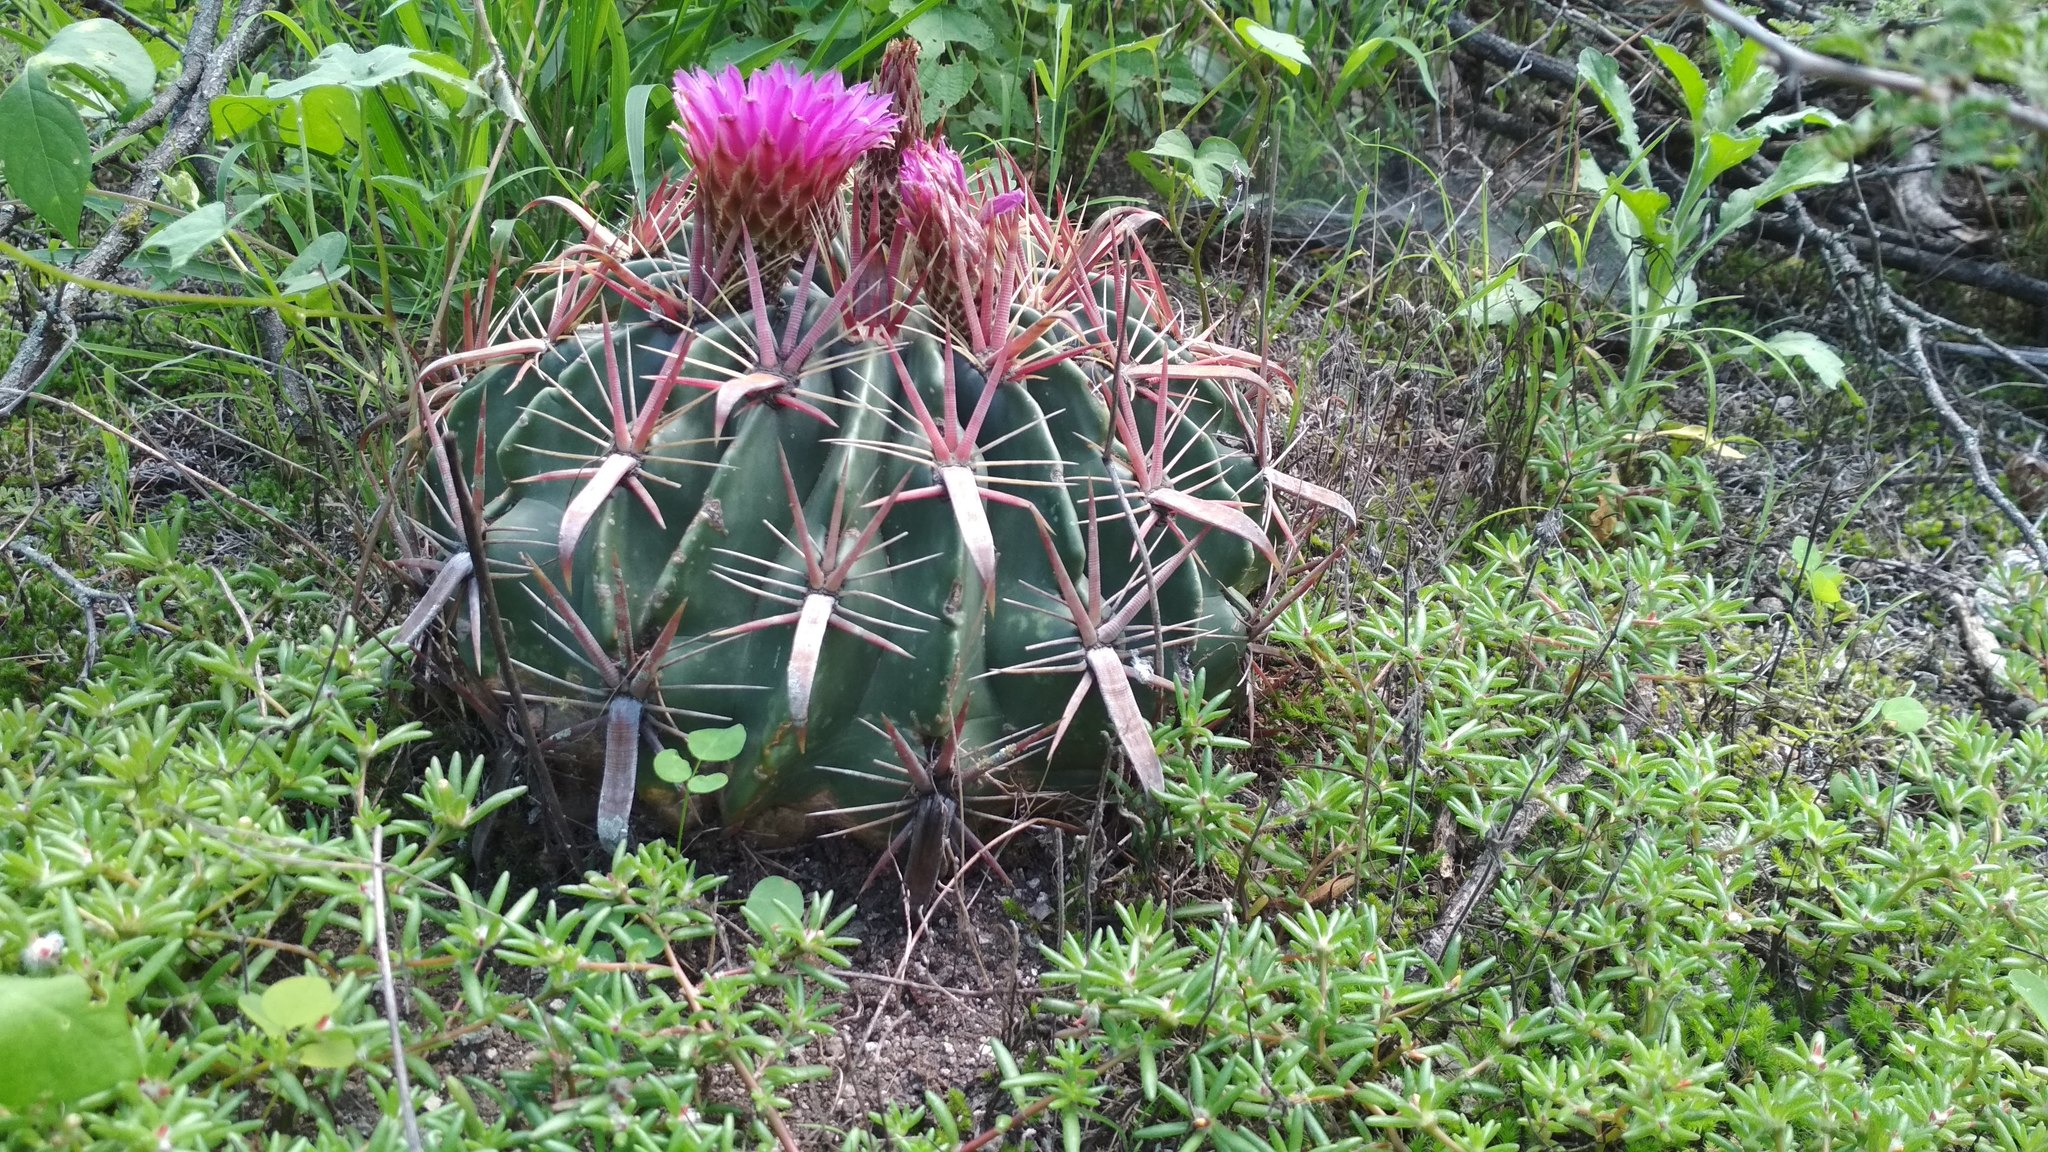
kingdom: Plantae
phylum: Tracheophyta
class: Magnoliopsida
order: Caryophyllales
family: Cactaceae
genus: Ferocactus
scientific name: Ferocactus latispinus
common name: Devil's-tongue cactus
